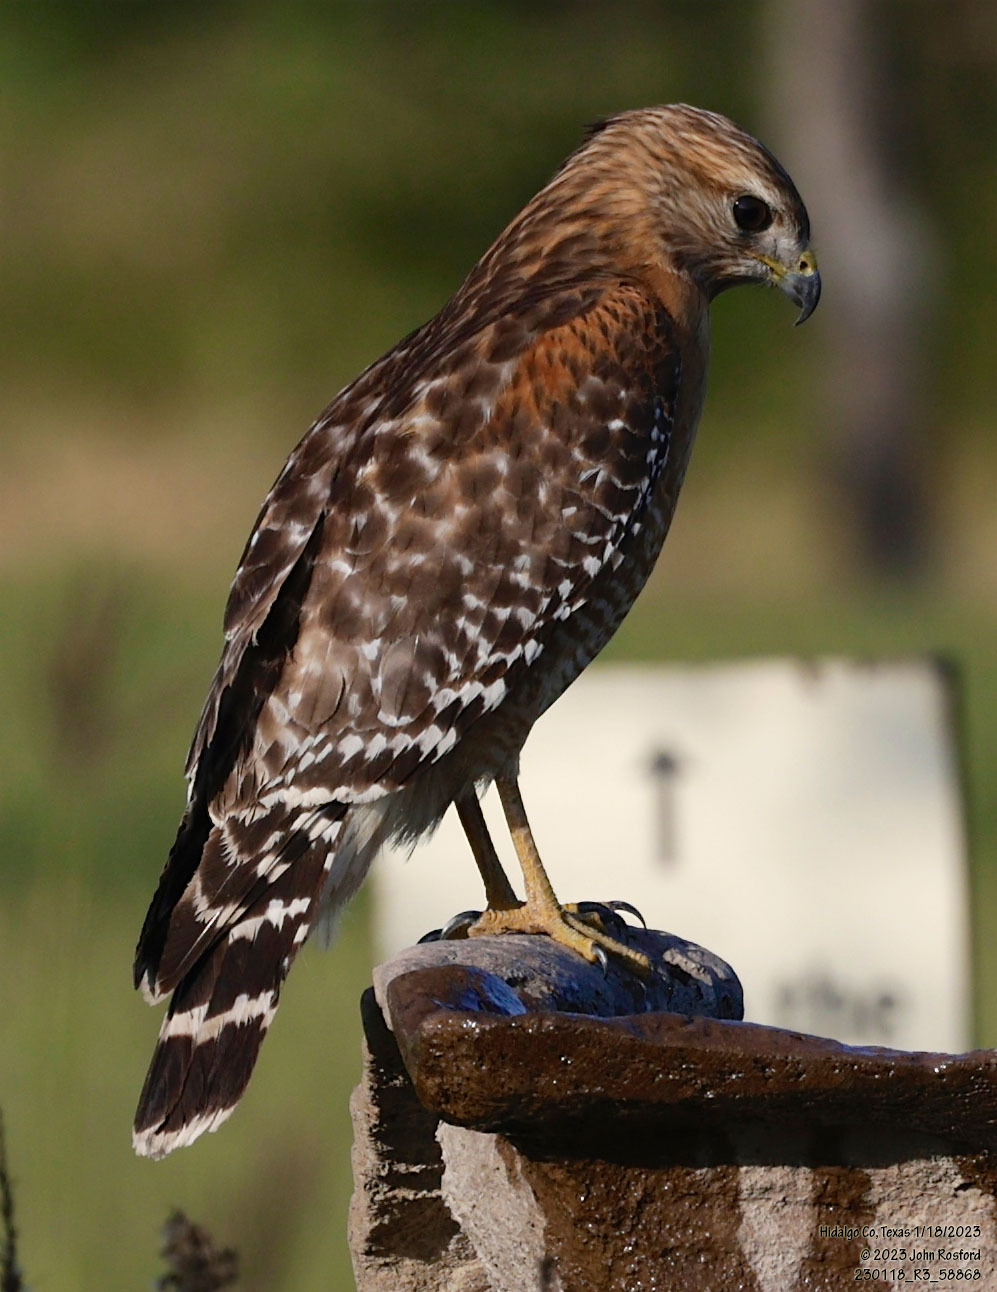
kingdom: Animalia
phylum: Chordata
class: Aves
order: Accipitriformes
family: Accipitridae
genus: Buteo
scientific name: Buteo lineatus
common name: Red-shouldered hawk
